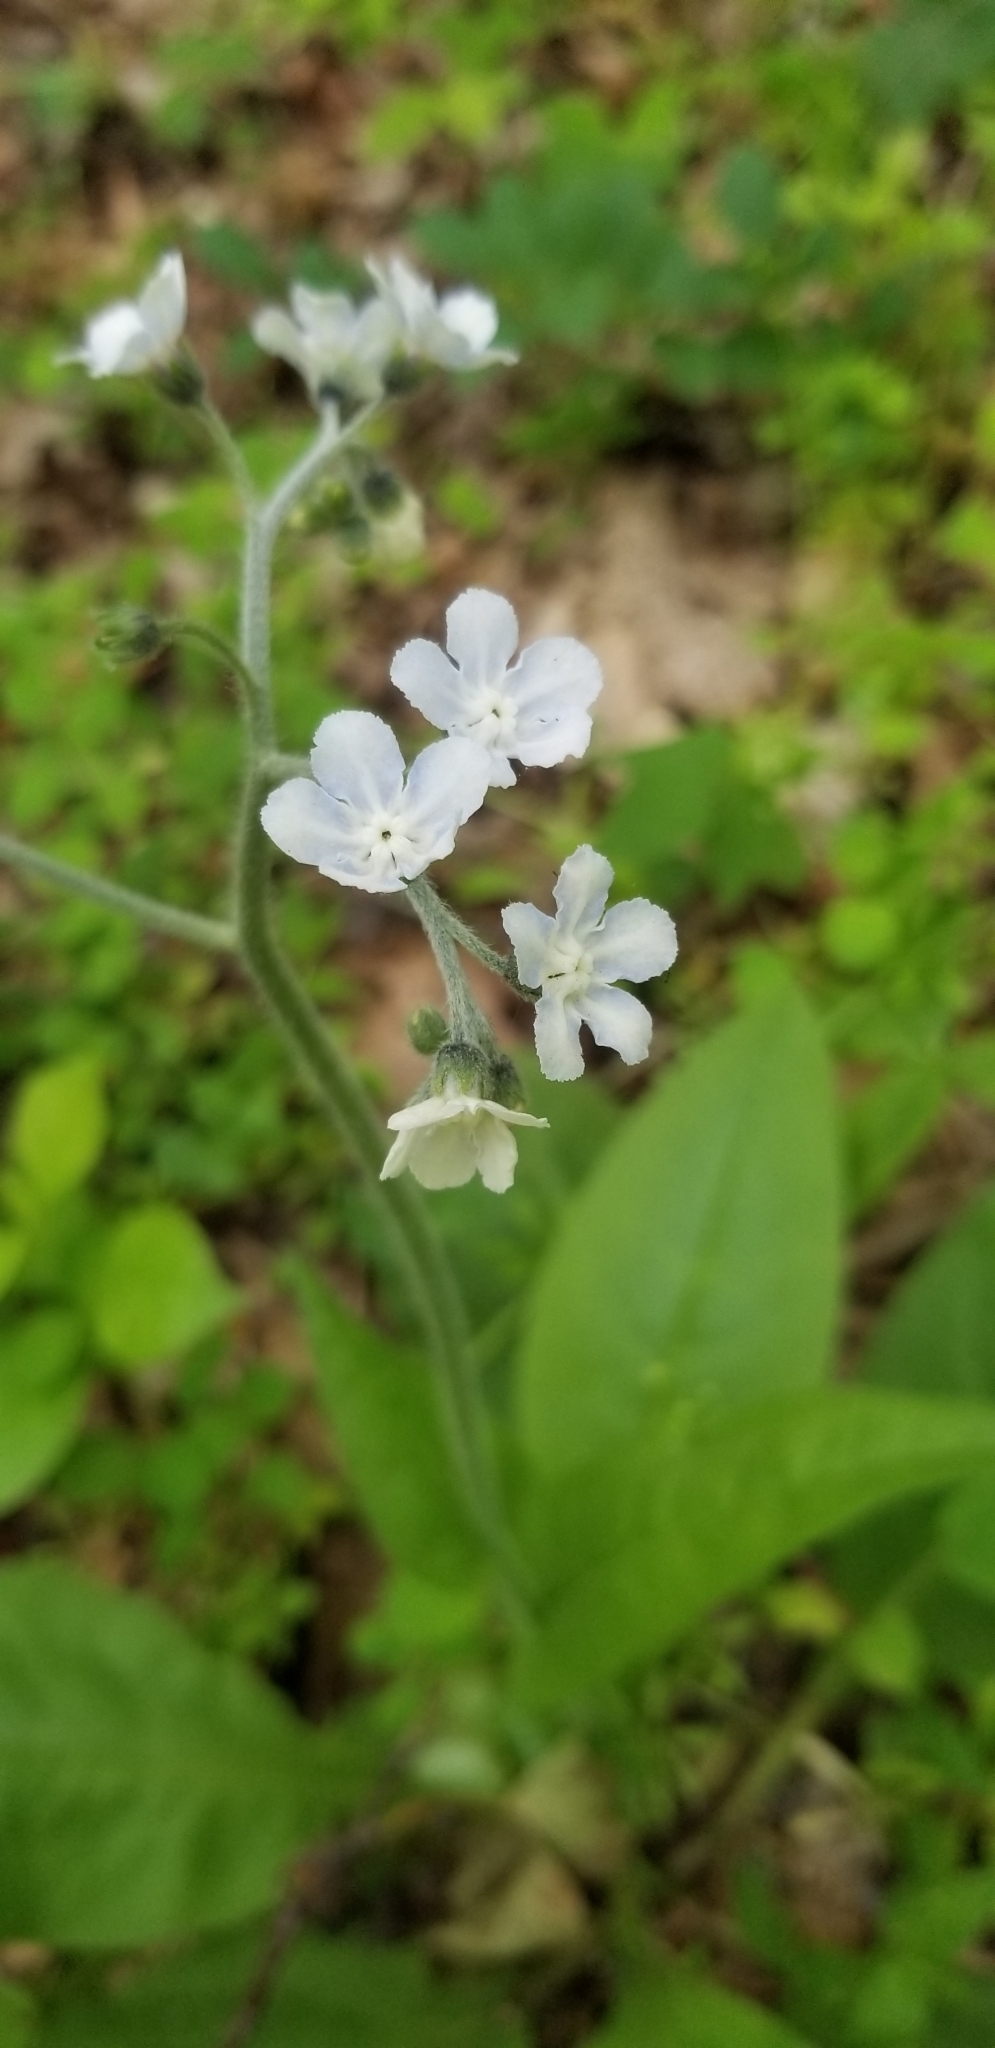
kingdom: Plantae
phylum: Tracheophyta
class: Magnoliopsida
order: Boraginales
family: Boraginaceae
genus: Andersonglossum
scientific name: Andersonglossum virginianum
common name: Wild comfrey
